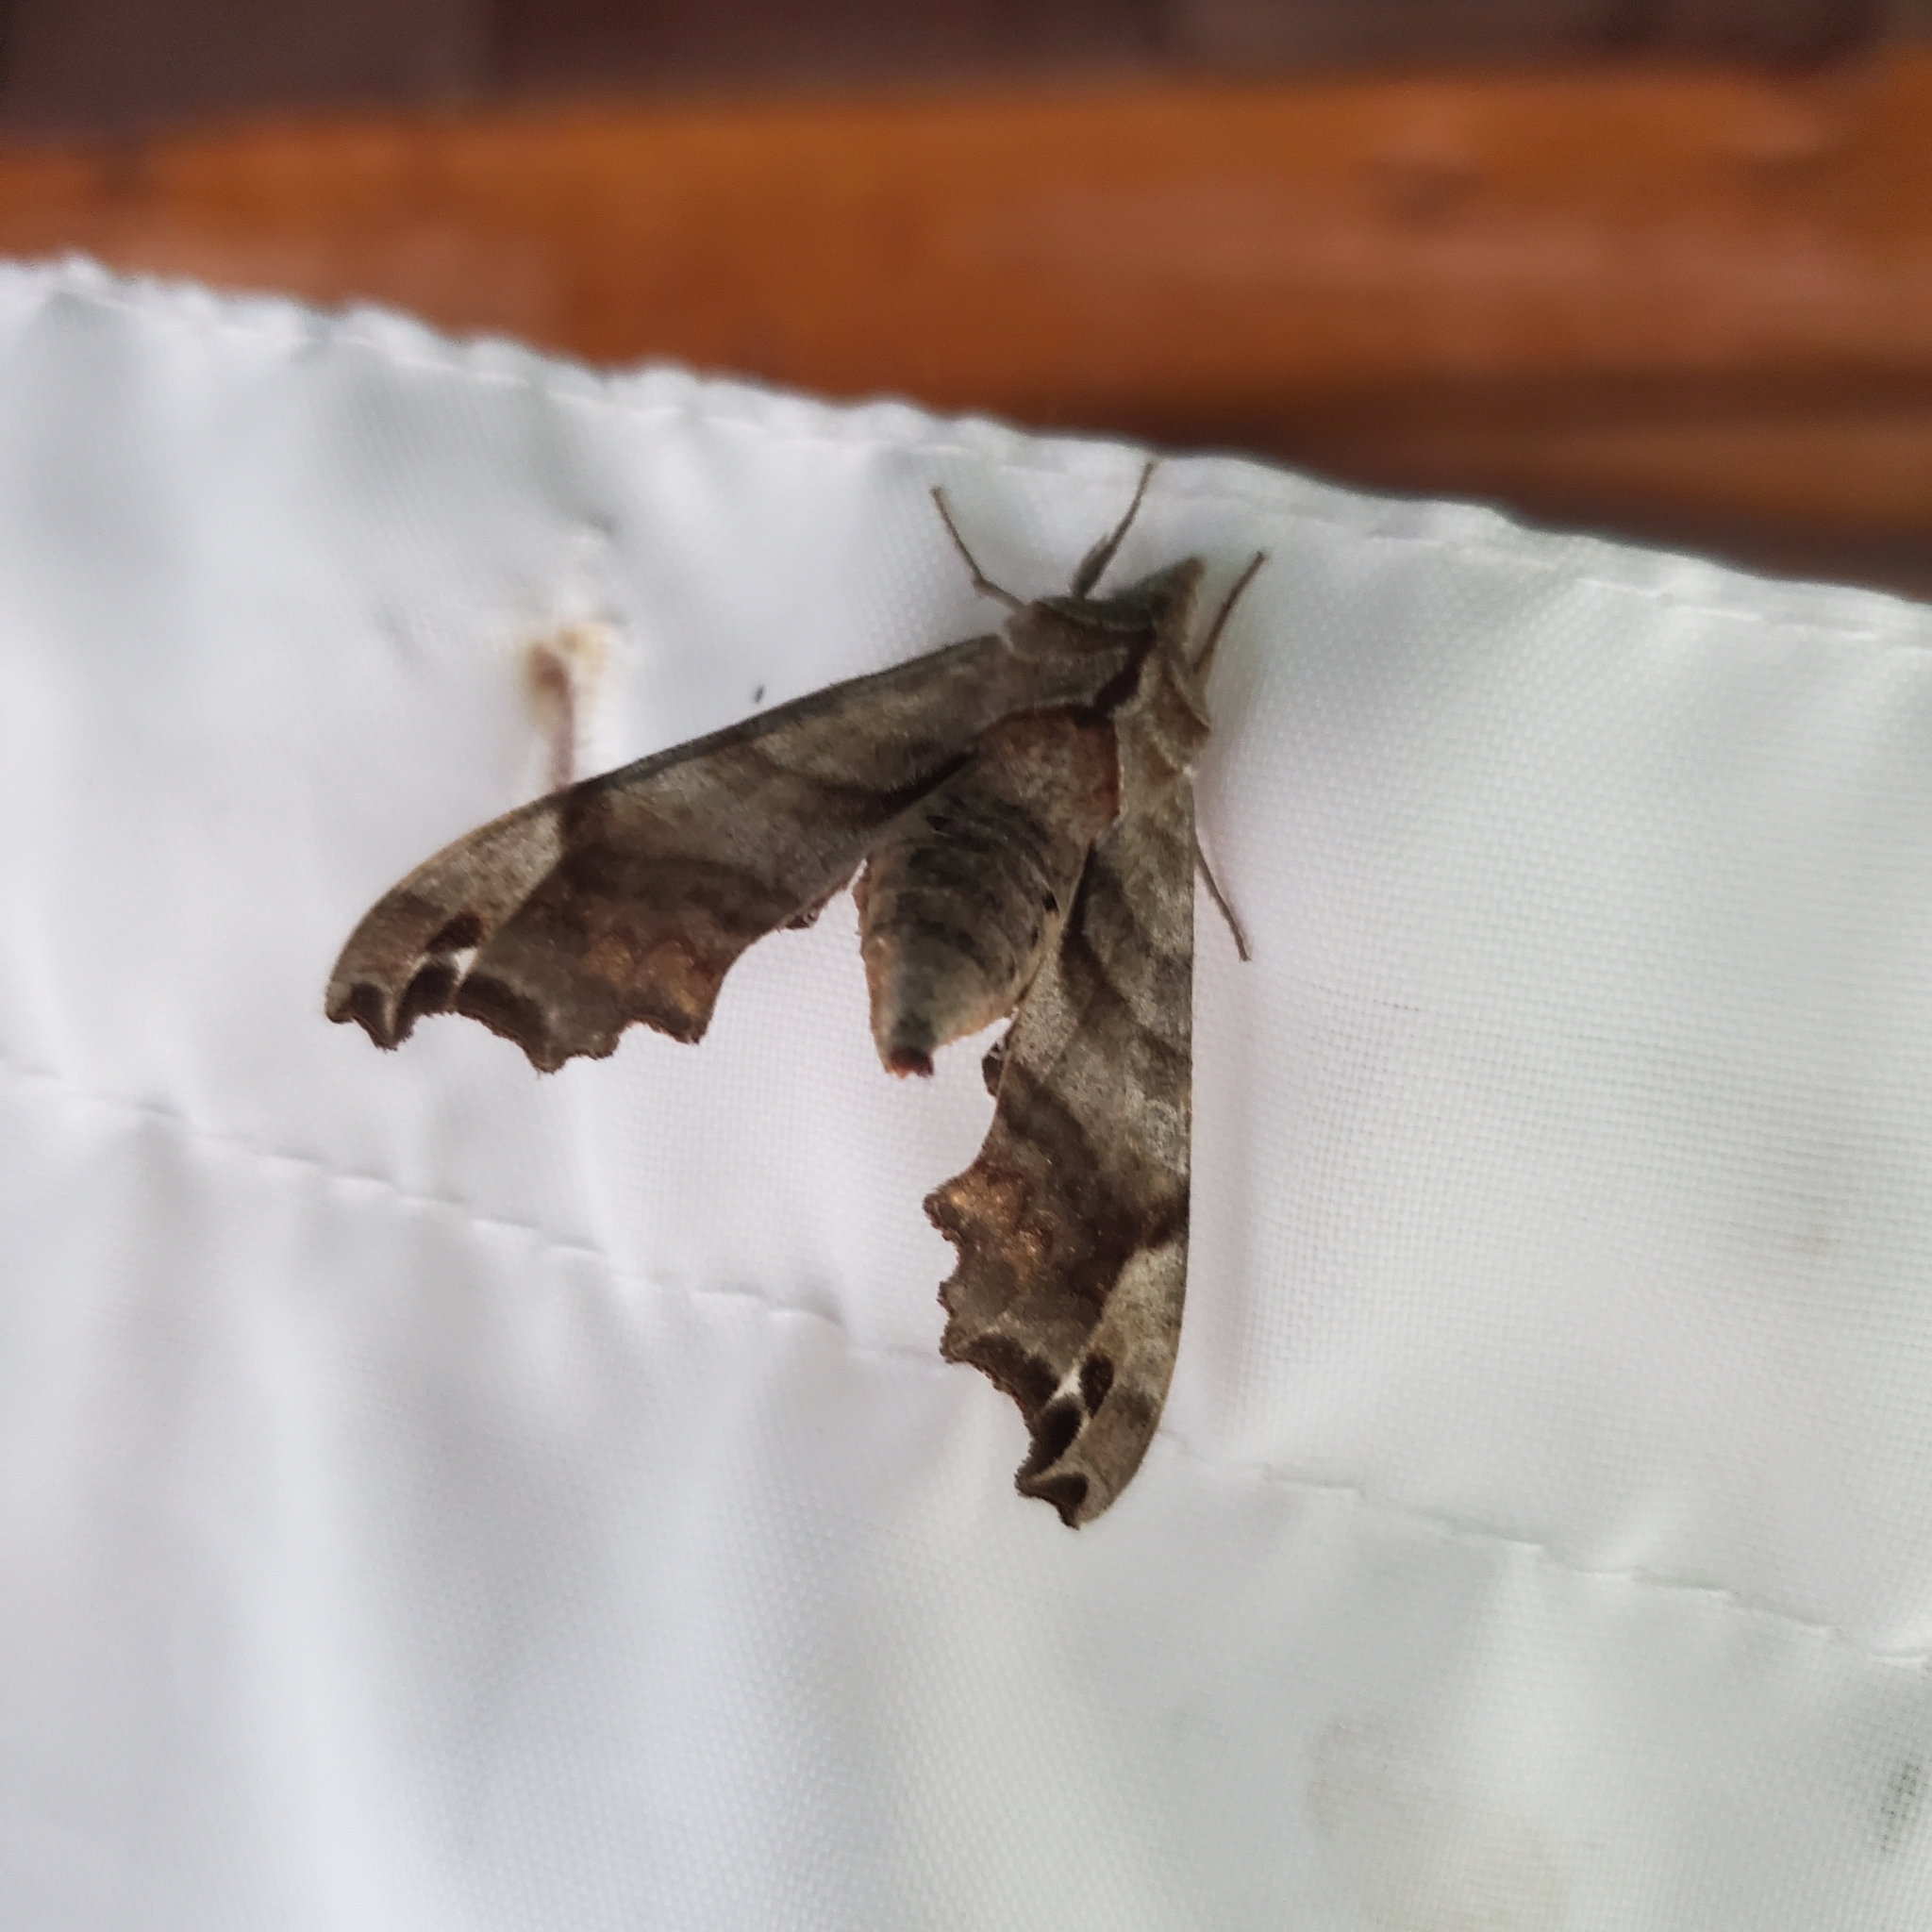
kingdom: Animalia
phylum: Arthropoda
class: Insecta
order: Lepidoptera
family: Sphingidae
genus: Deidamia
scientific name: Deidamia inscriptum
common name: Lettered sphinx
